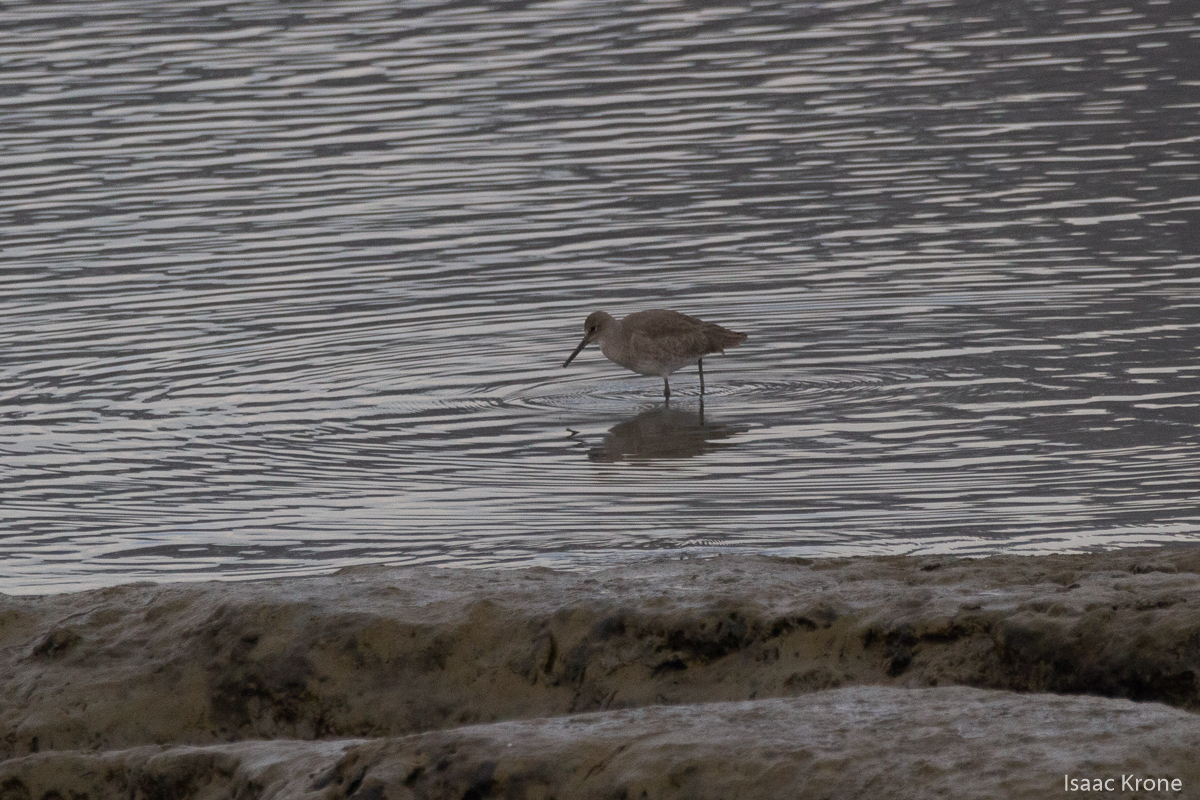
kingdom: Animalia
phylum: Chordata
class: Aves
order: Charadriiformes
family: Scolopacidae
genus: Tringa
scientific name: Tringa semipalmata
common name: Willet
